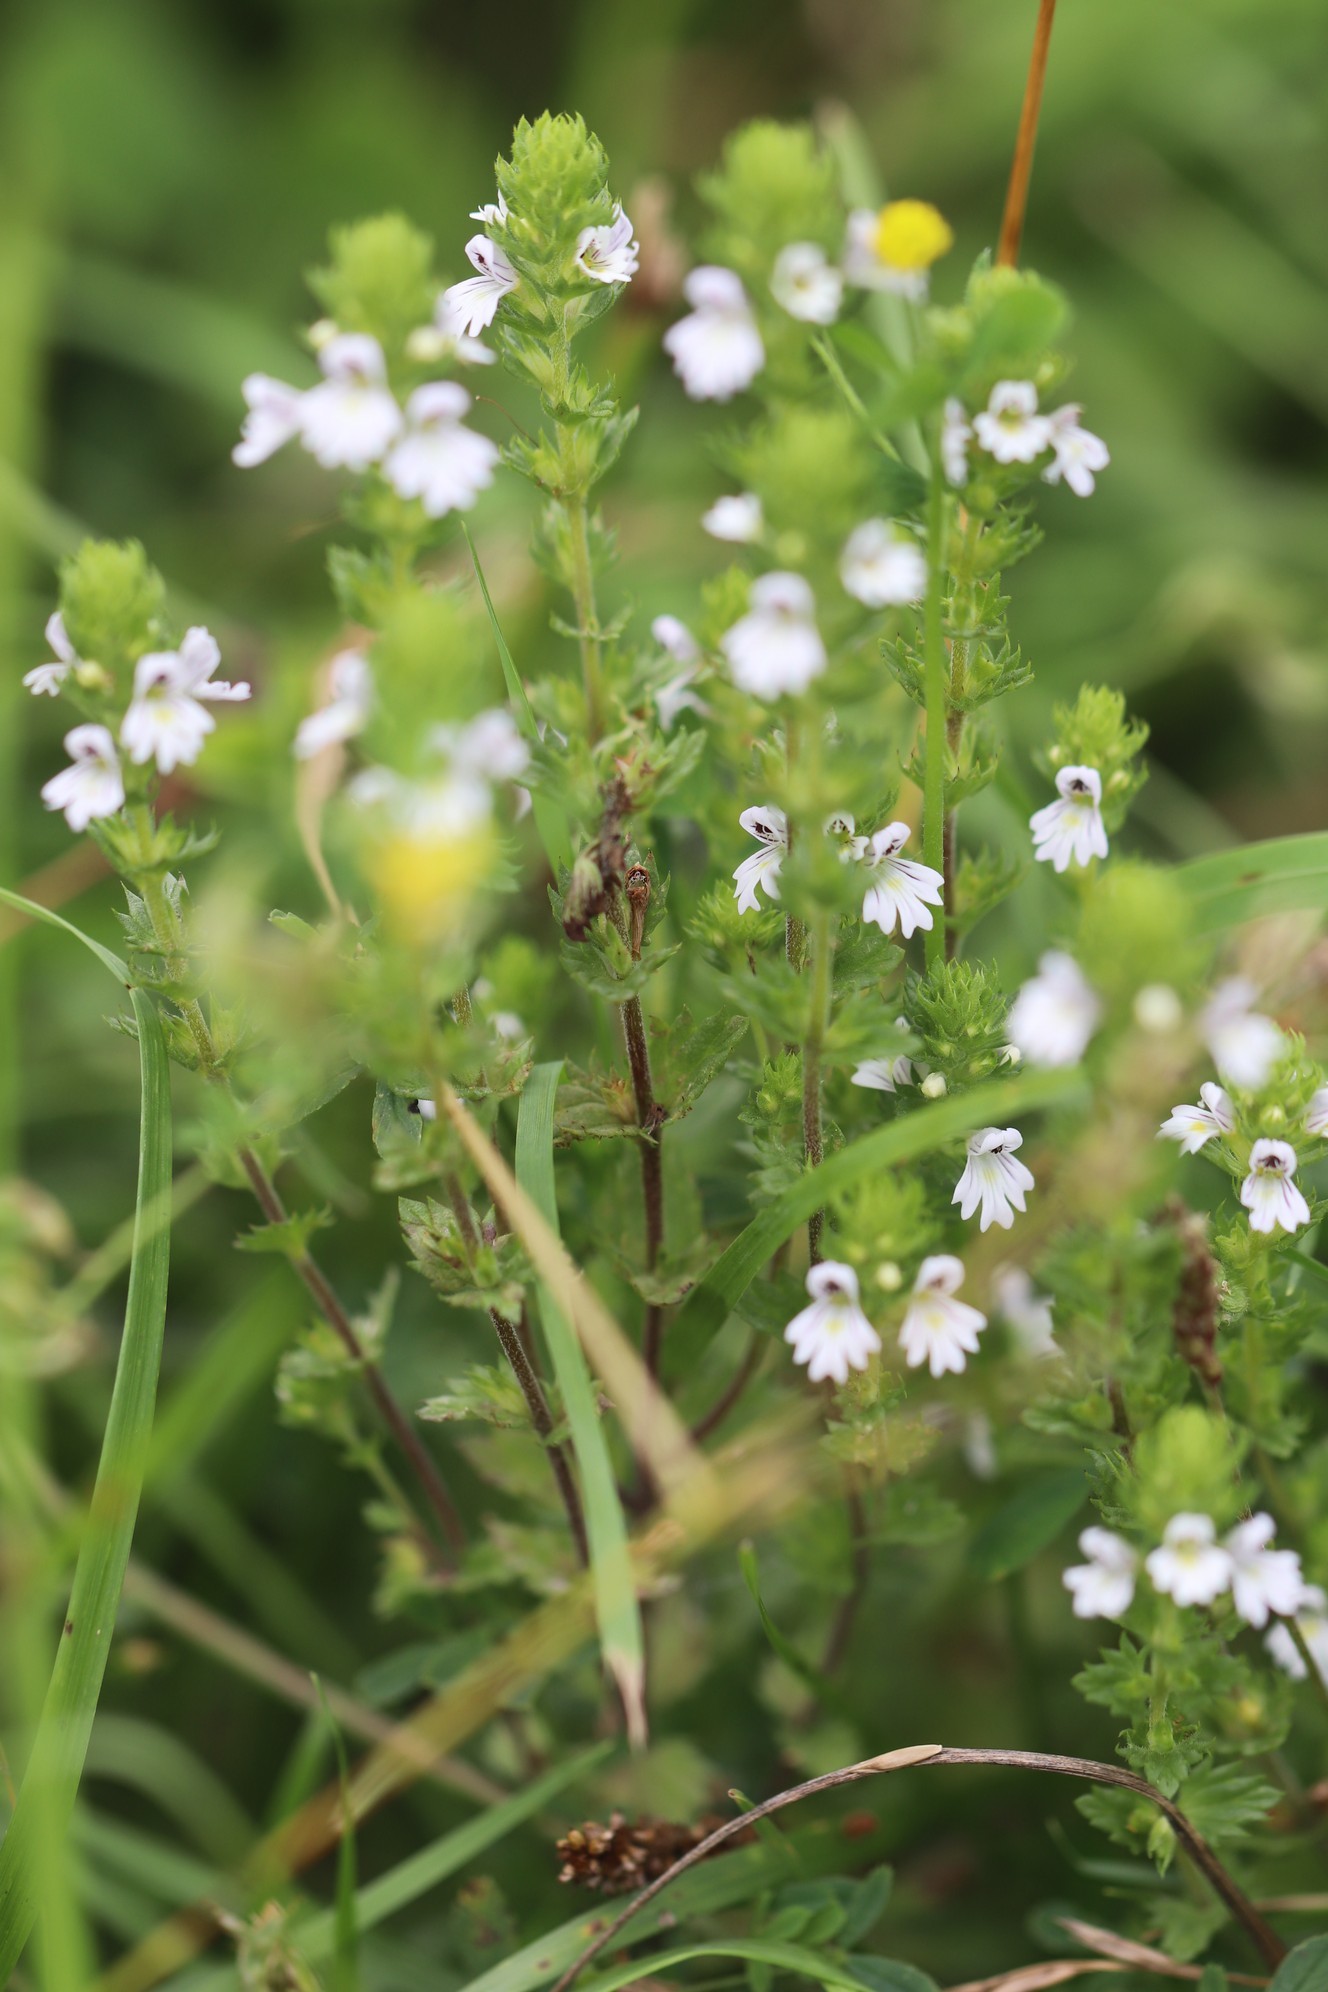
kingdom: Plantae
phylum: Tracheophyta
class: Magnoliopsida
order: Lamiales
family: Orobanchaceae
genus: Euphrasia
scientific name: Euphrasia stricta
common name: Drug eyebright
